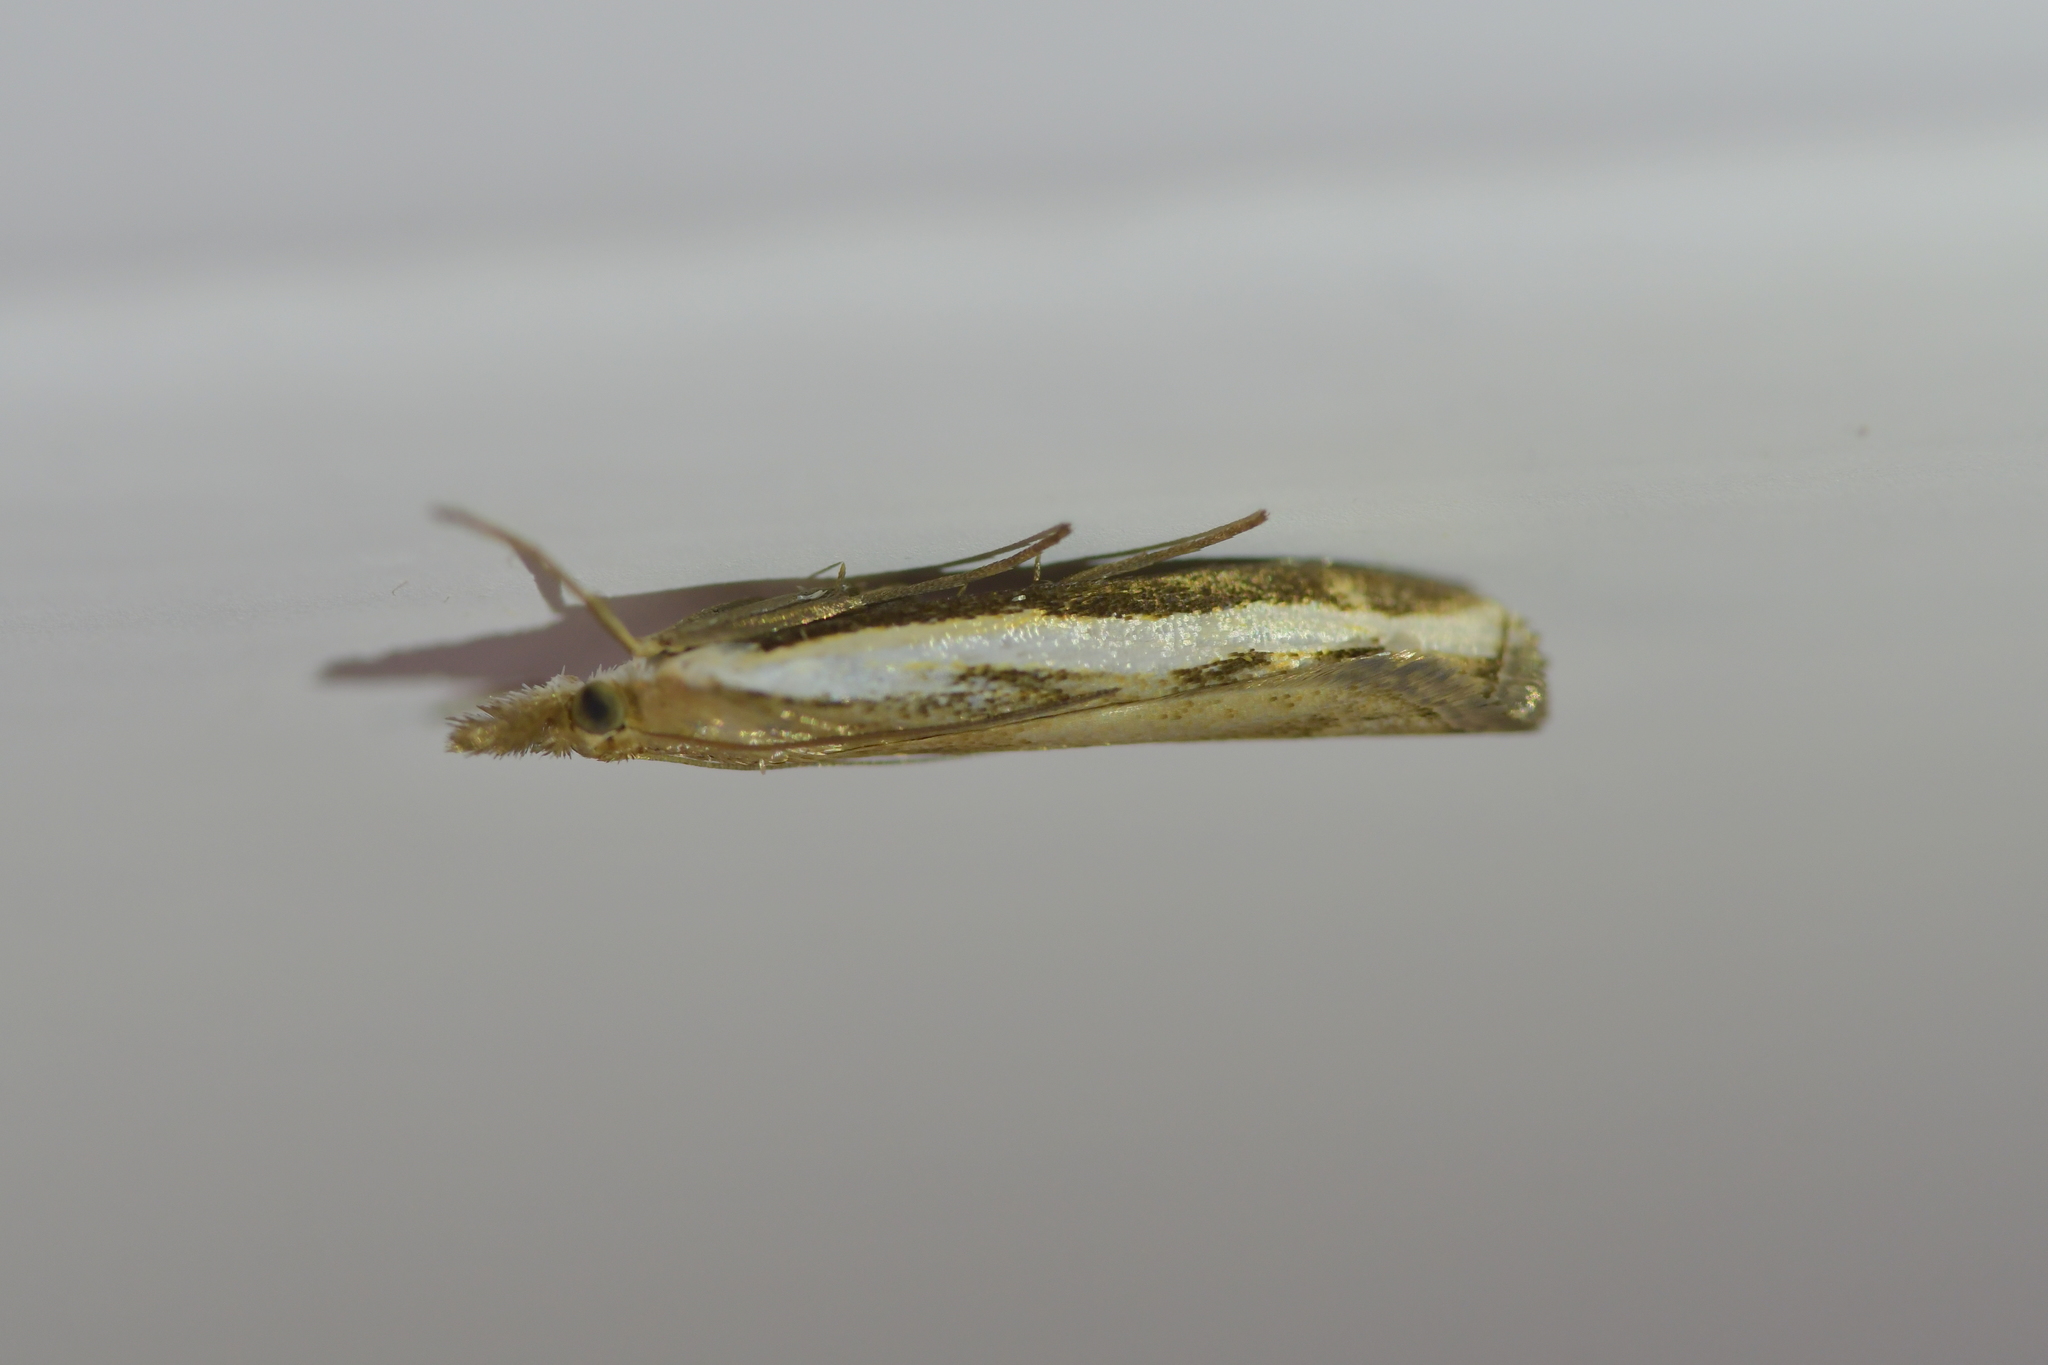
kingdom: Animalia
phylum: Arthropoda
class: Insecta
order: Lepidoptera
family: Crambidae
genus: Orocrambus
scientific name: Orocrambus flexuosellus
